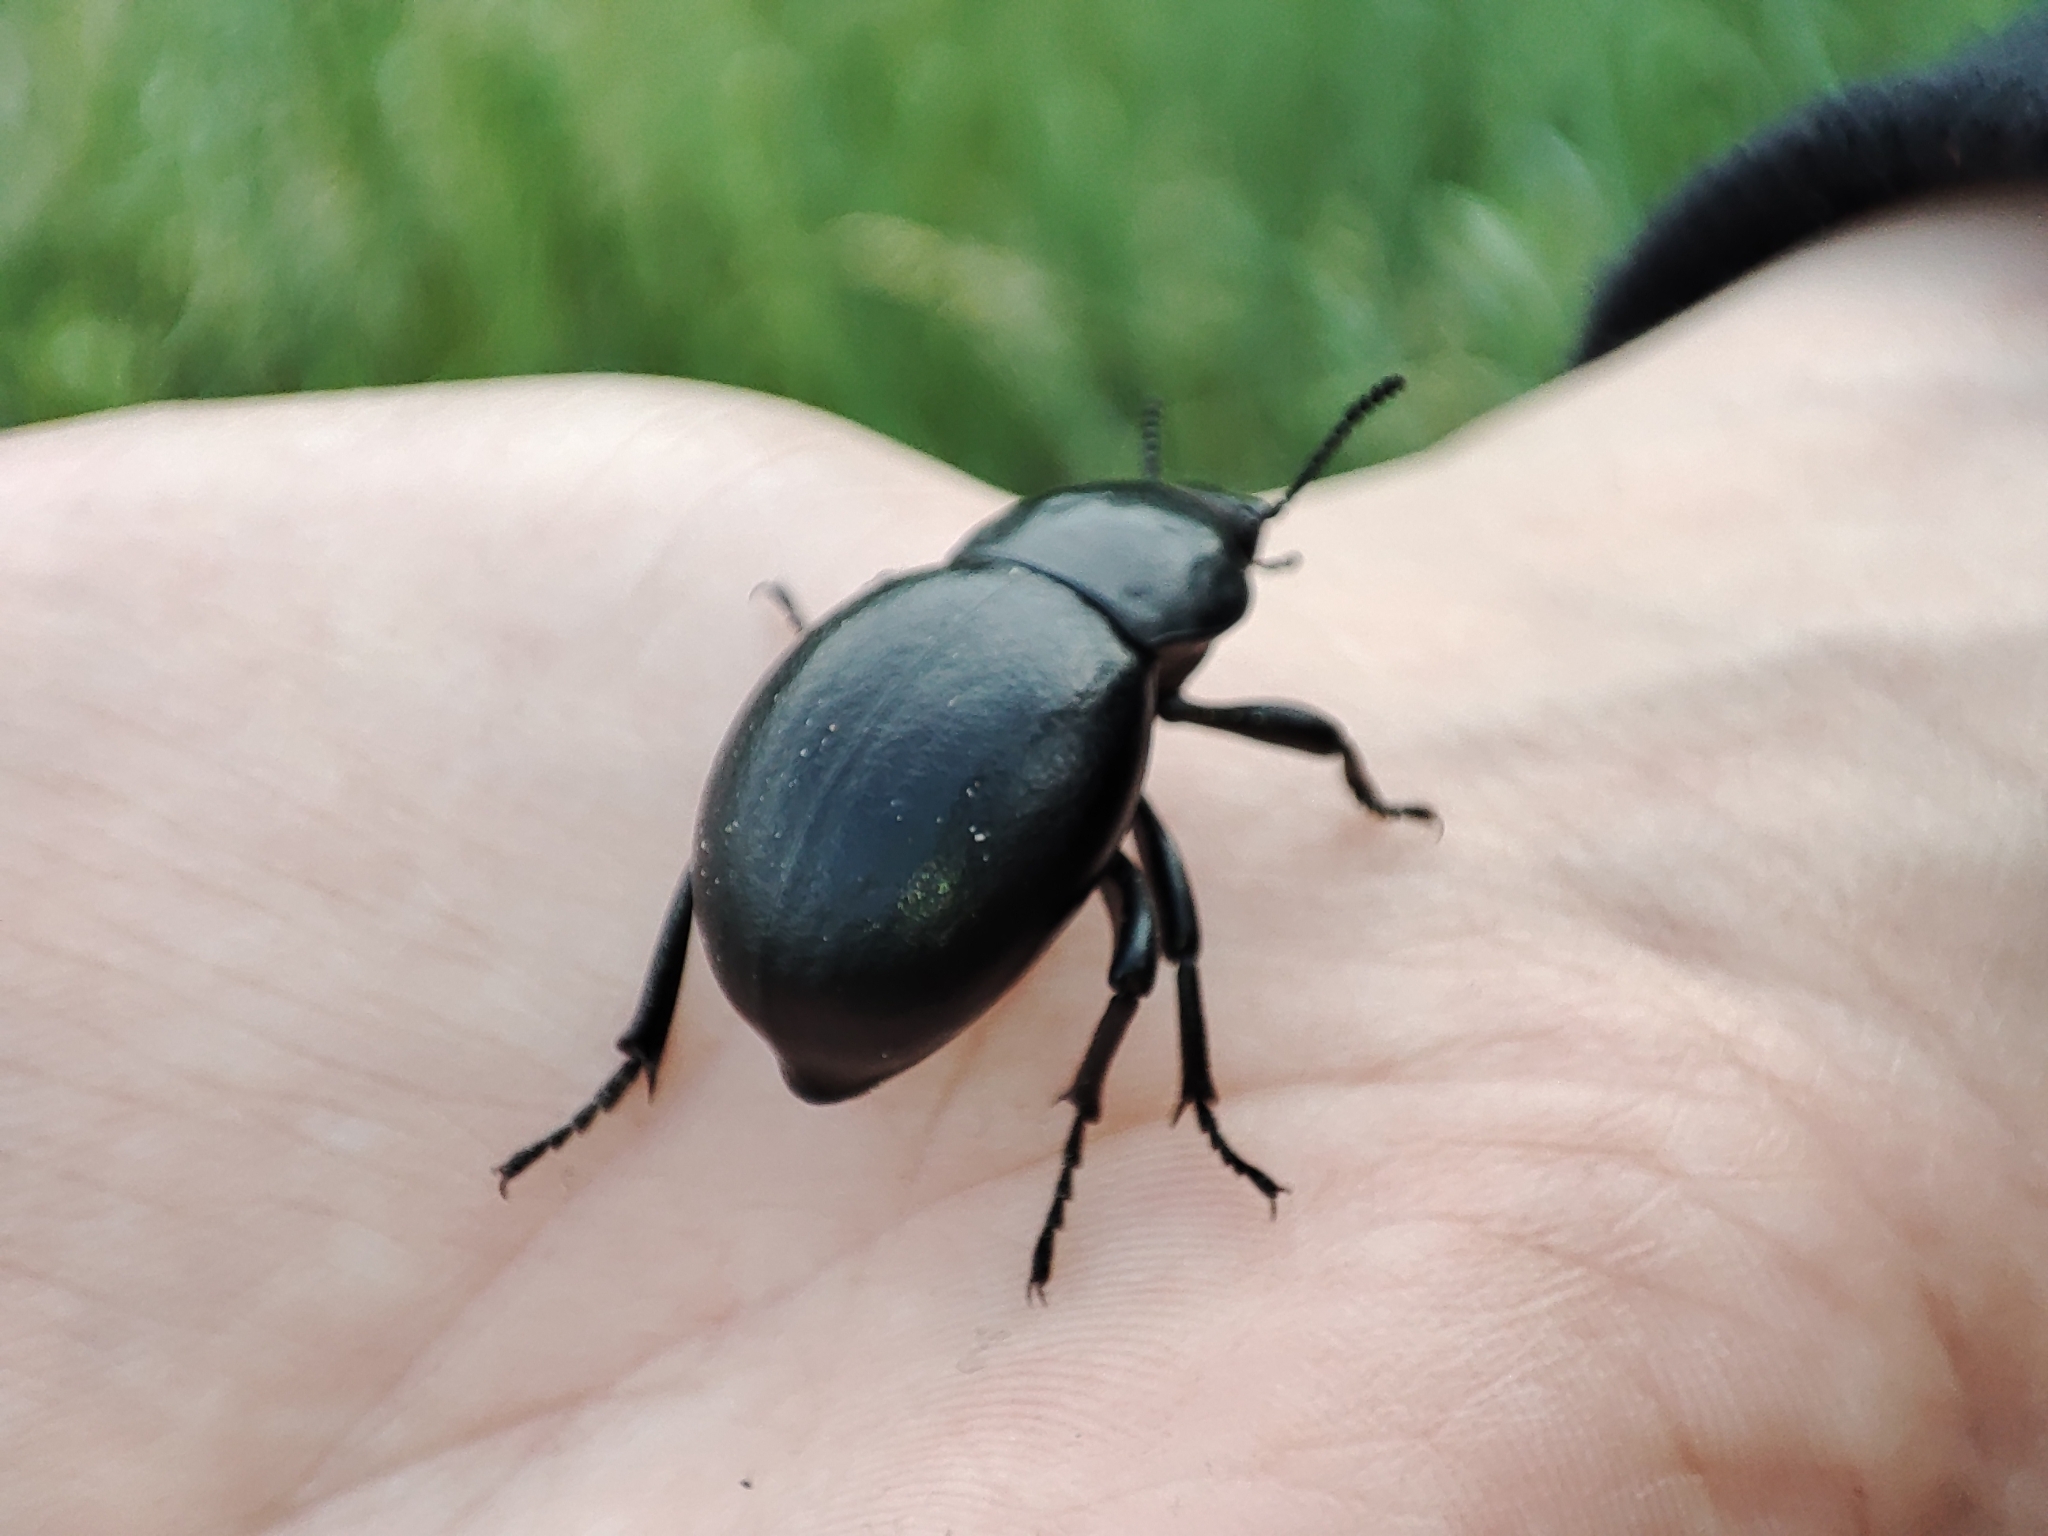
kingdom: Animalia
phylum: Arthropoda
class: Insecta
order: Coleoptera
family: Tenebrionidae
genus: Gnaptor
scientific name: Gnaptor spinimanus
